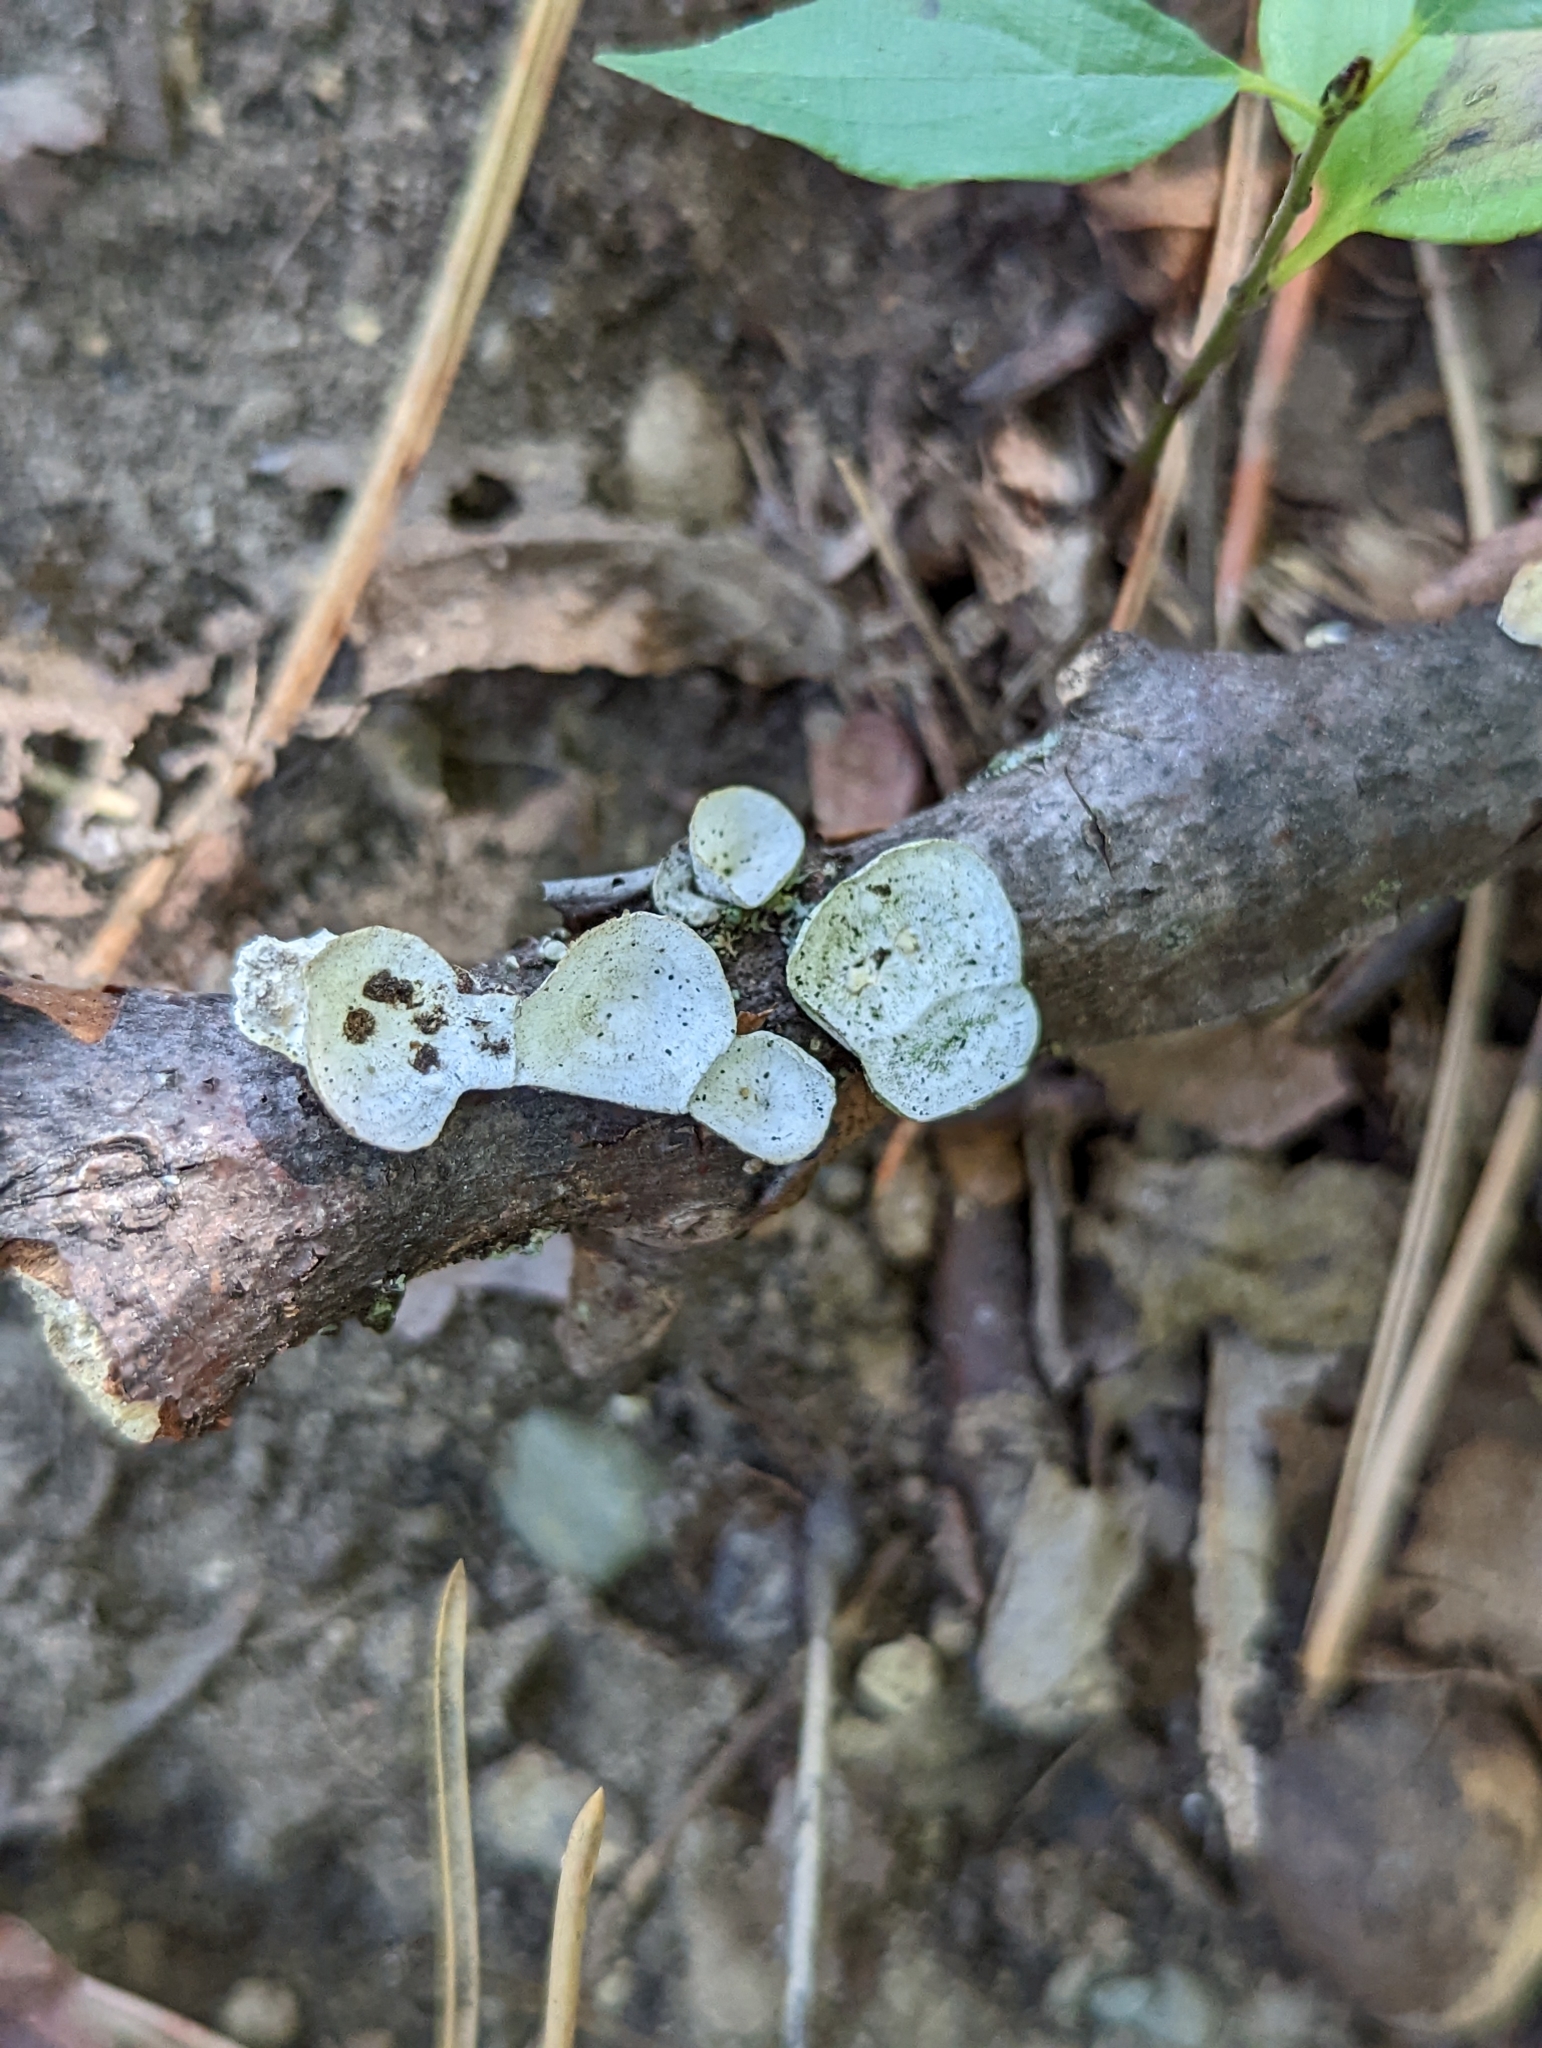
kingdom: Fungi
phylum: Basidiomycota
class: Agaricomycetes
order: Polyporales
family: Polyporaceae
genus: Poronidulus
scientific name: Poronidulus conchifer
